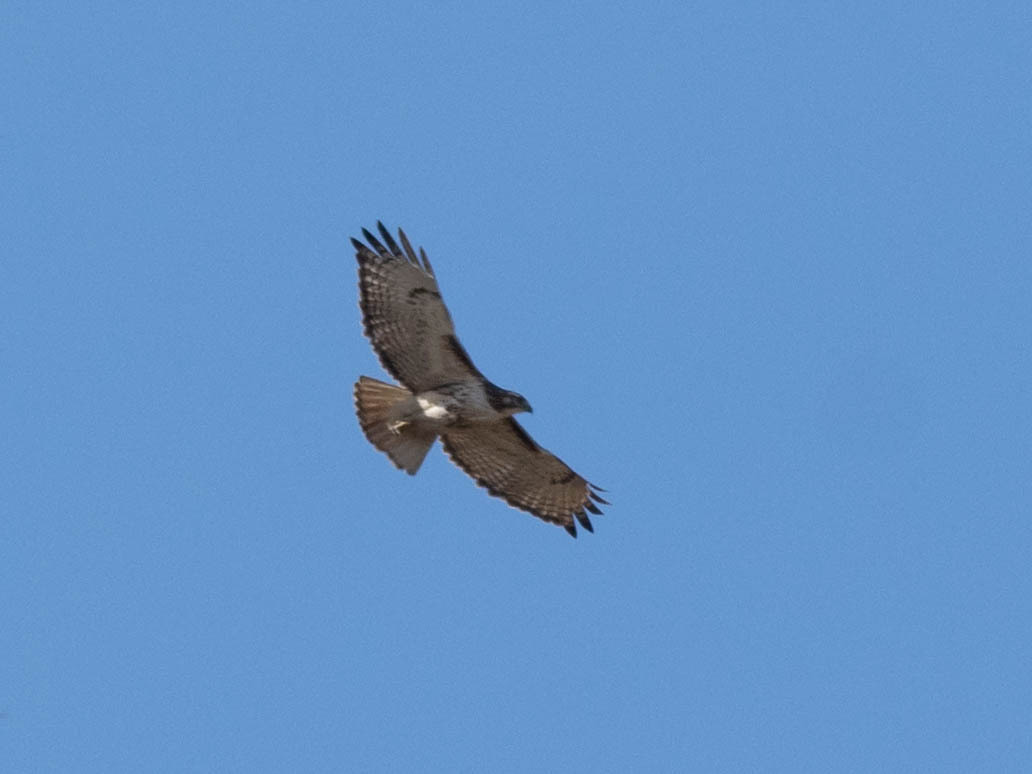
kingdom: Animalia
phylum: Chordata
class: Aves
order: Accipitriformes
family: Accipitridae
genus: Buteo
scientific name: Buteo jamaicensis
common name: Red-tailed hawk
